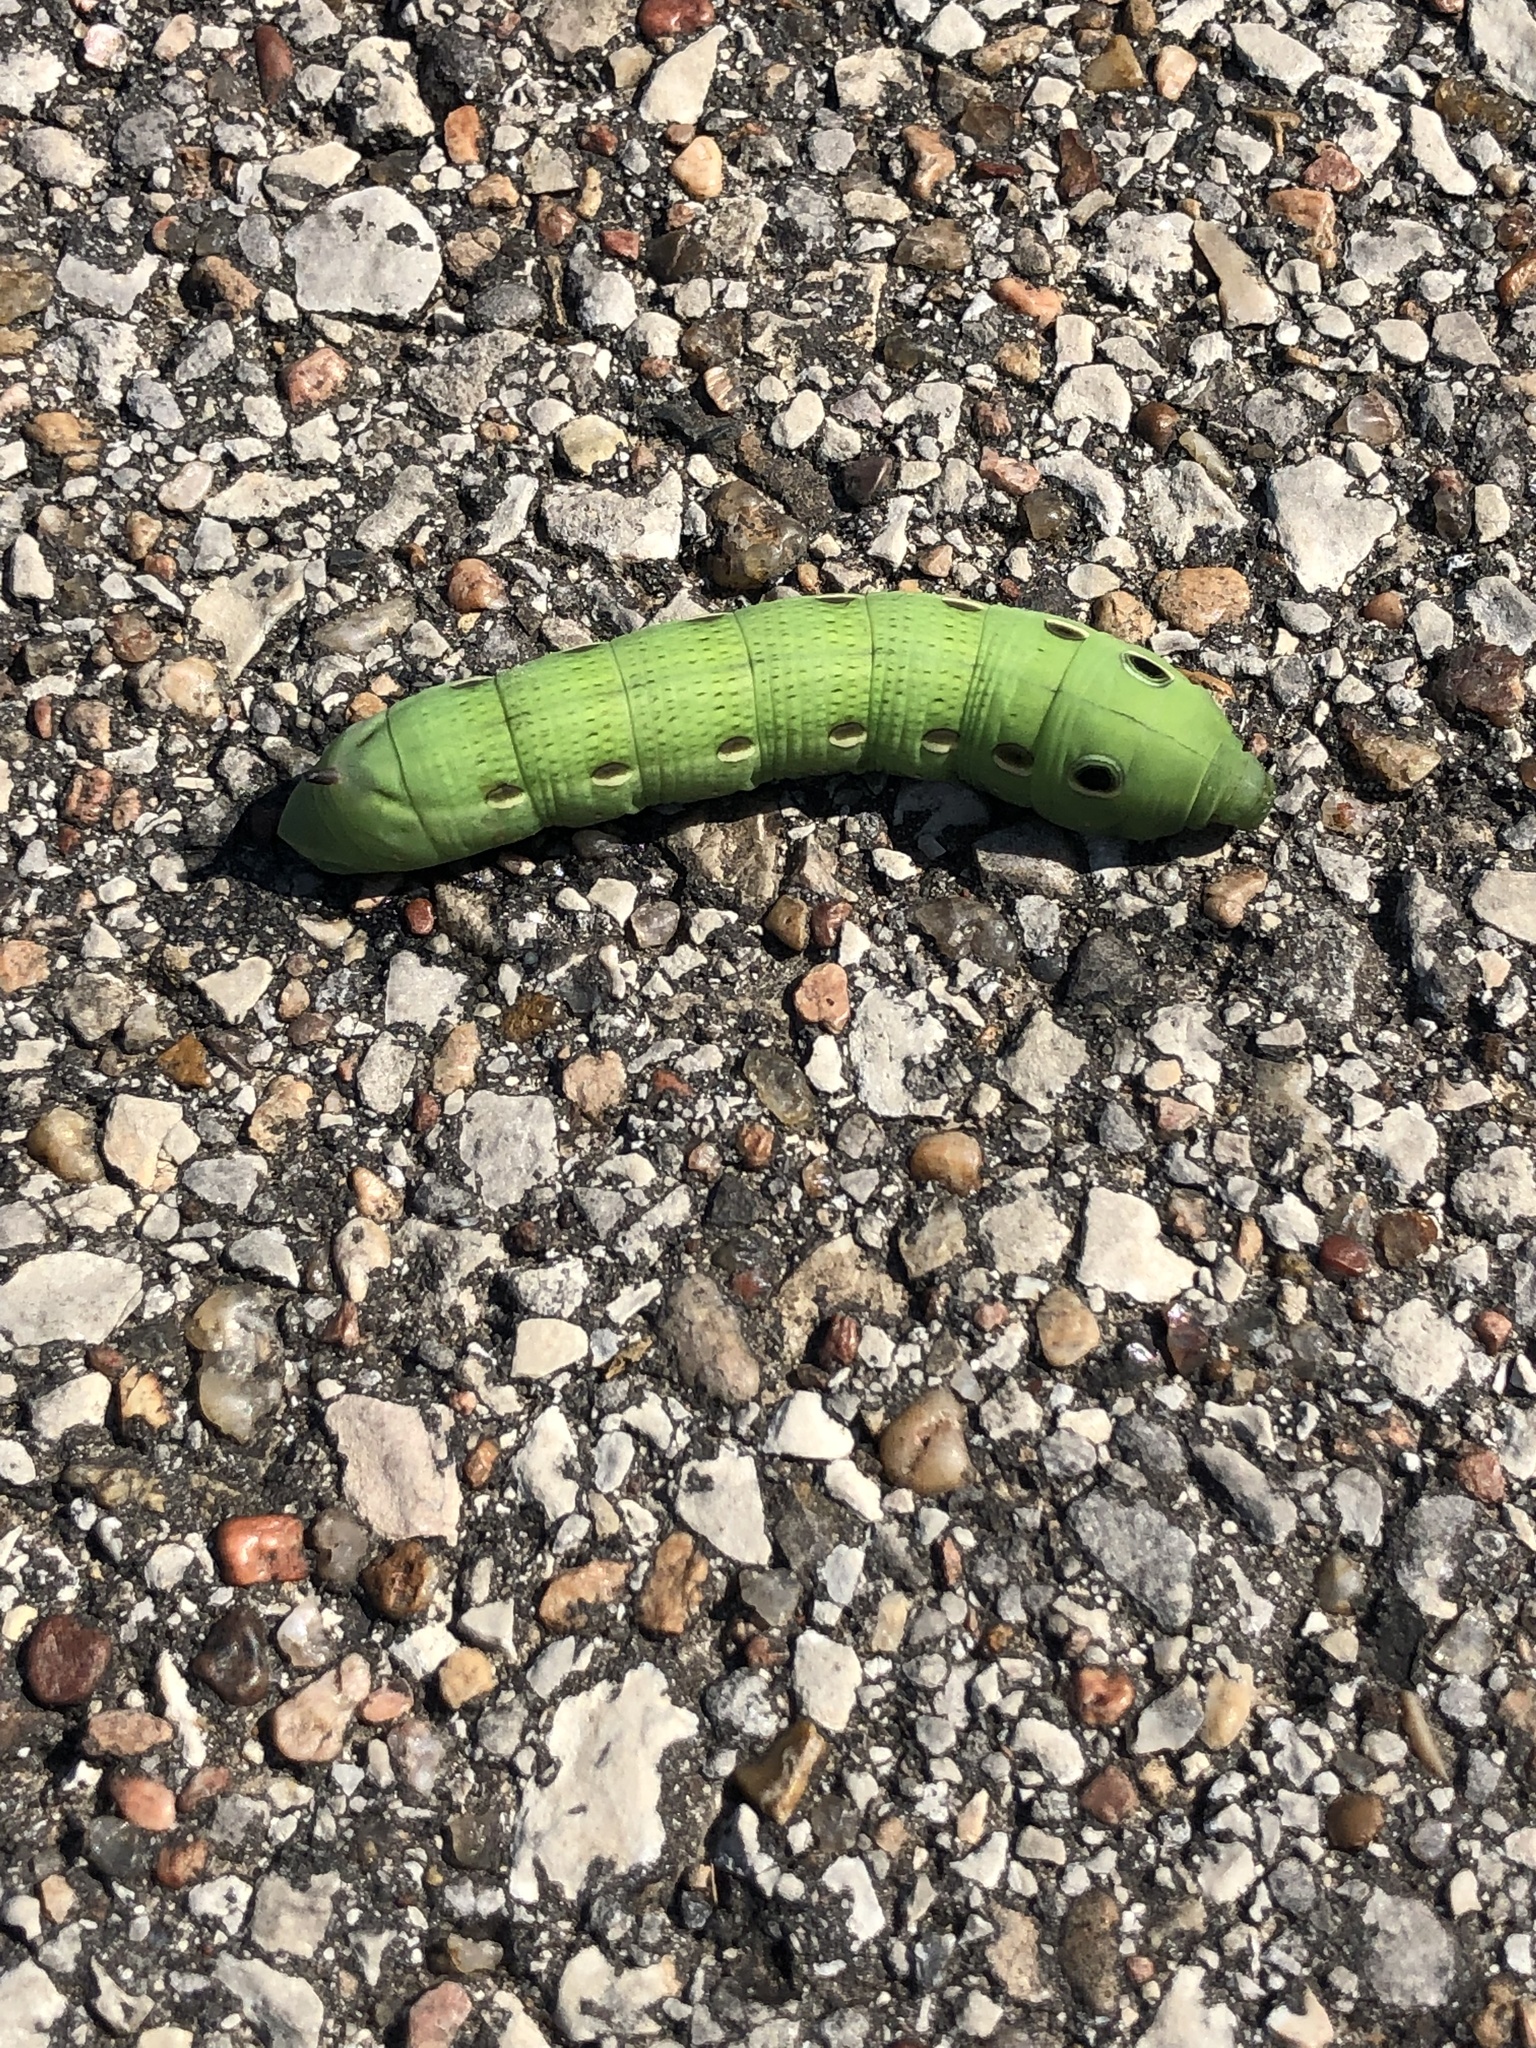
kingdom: Animalia
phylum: Arthropoda
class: Insecta
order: Lepidoptera
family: Sphingidae
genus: Xylophanes
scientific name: Xylophanes tersa
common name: Tersa sphinx
